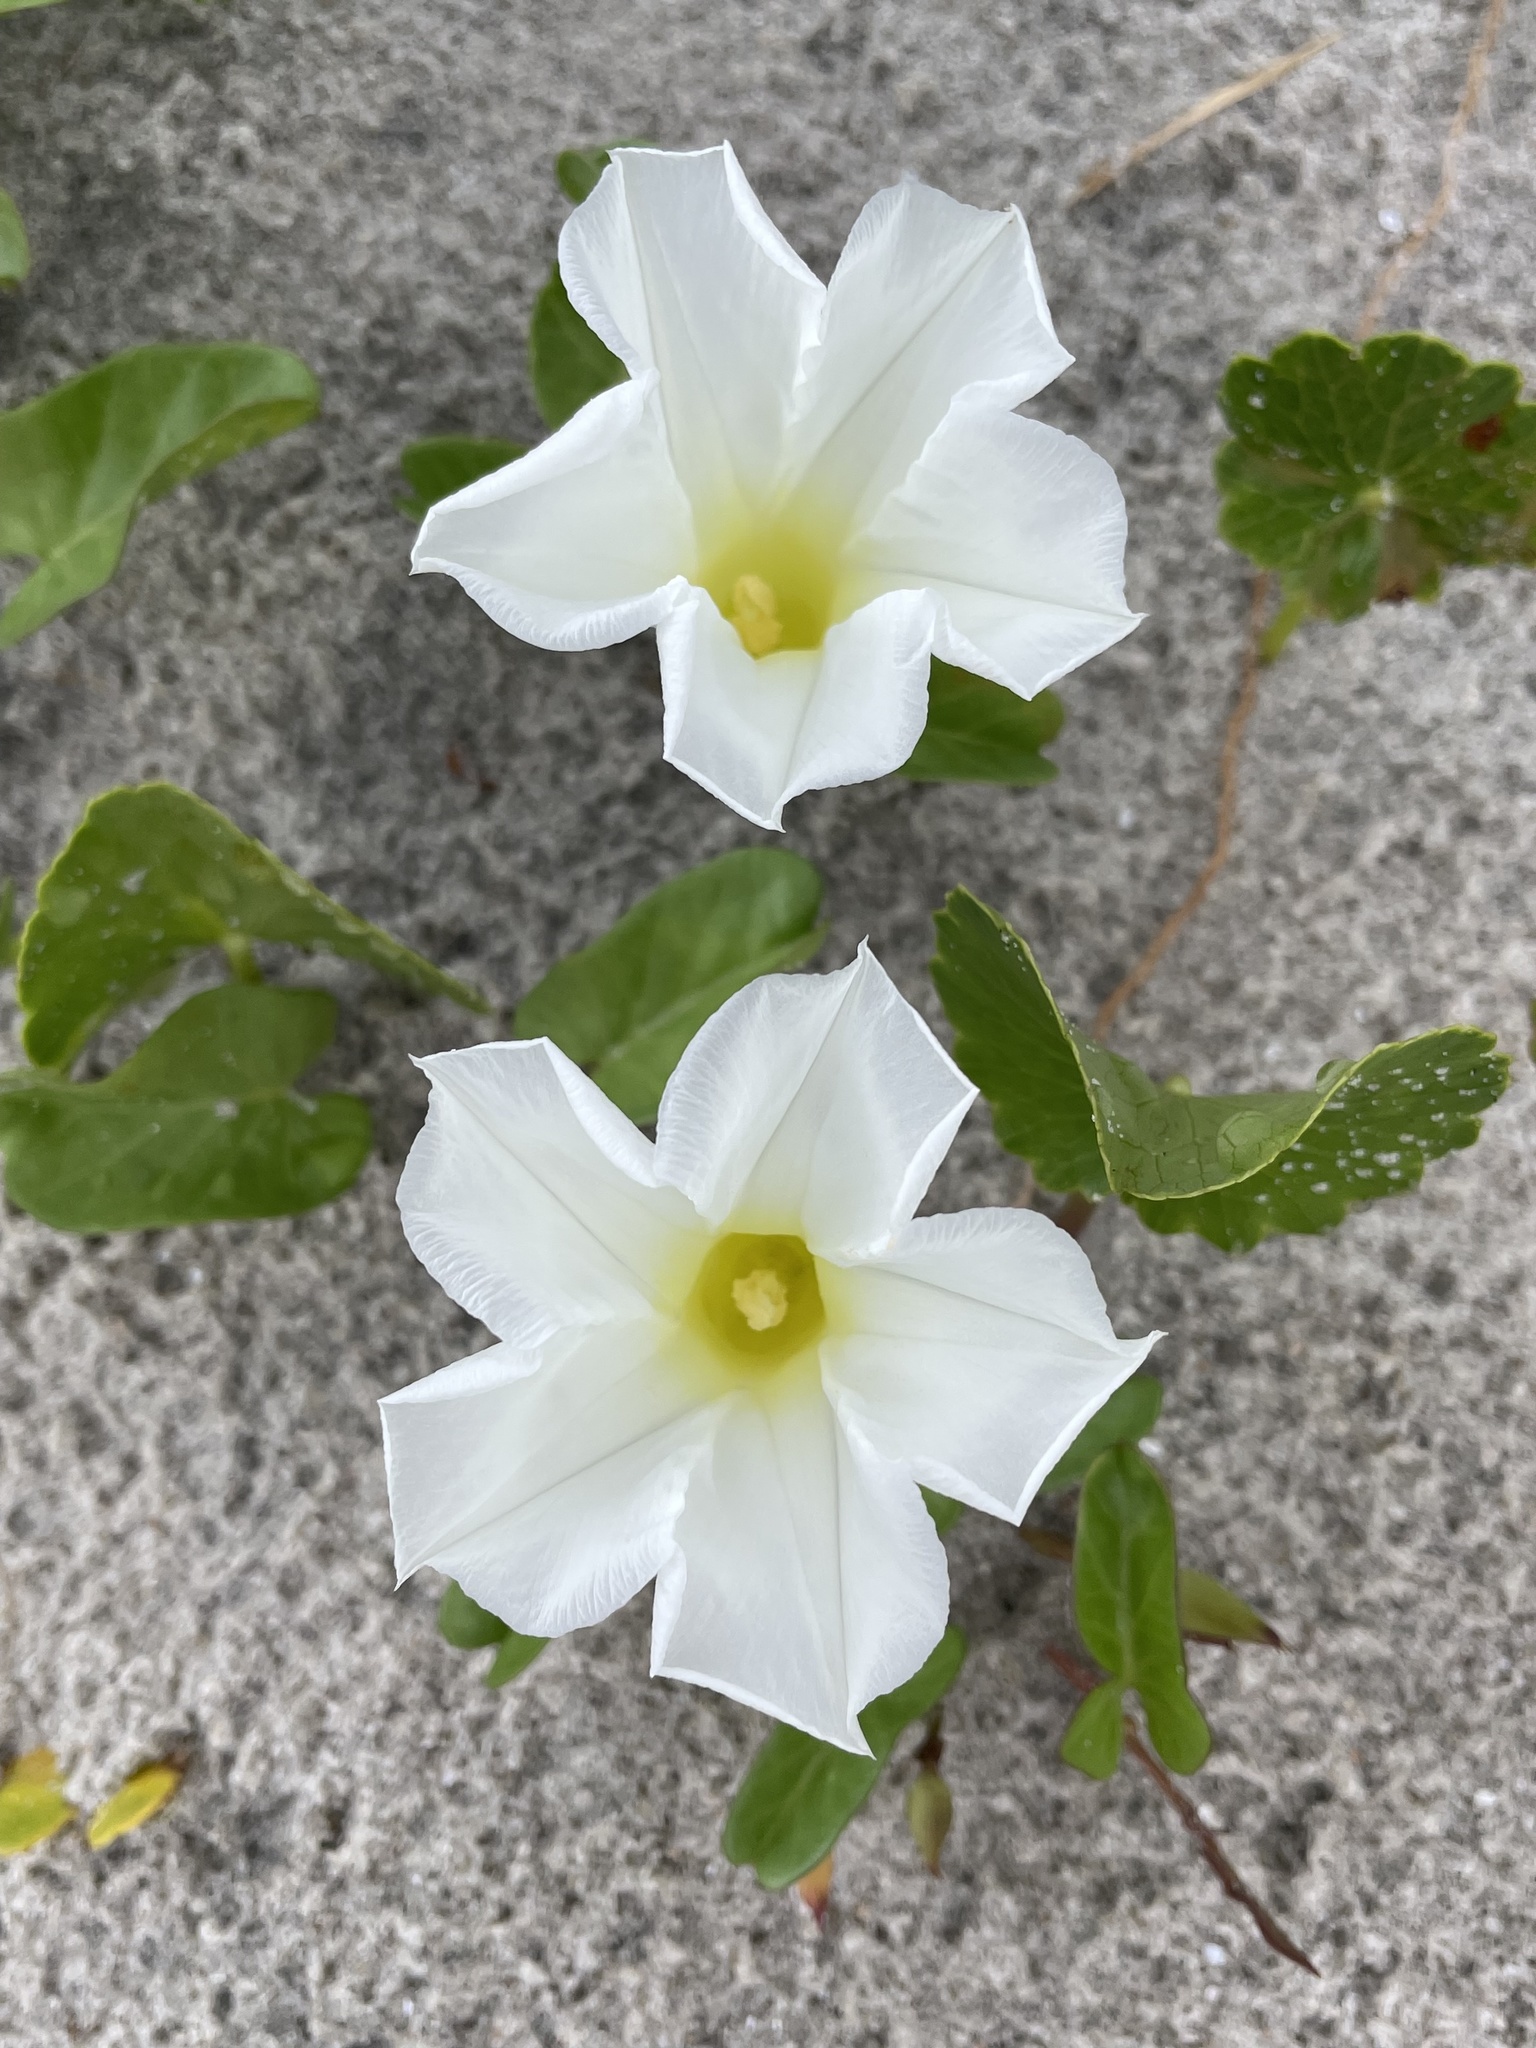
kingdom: Plantae
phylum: Tracheophyta
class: Magnoliopsida
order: Solanales
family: Convolvulaceae
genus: Ipomoea
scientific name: Ipomoea imperati
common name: Fiddle-leaf morning-glory
